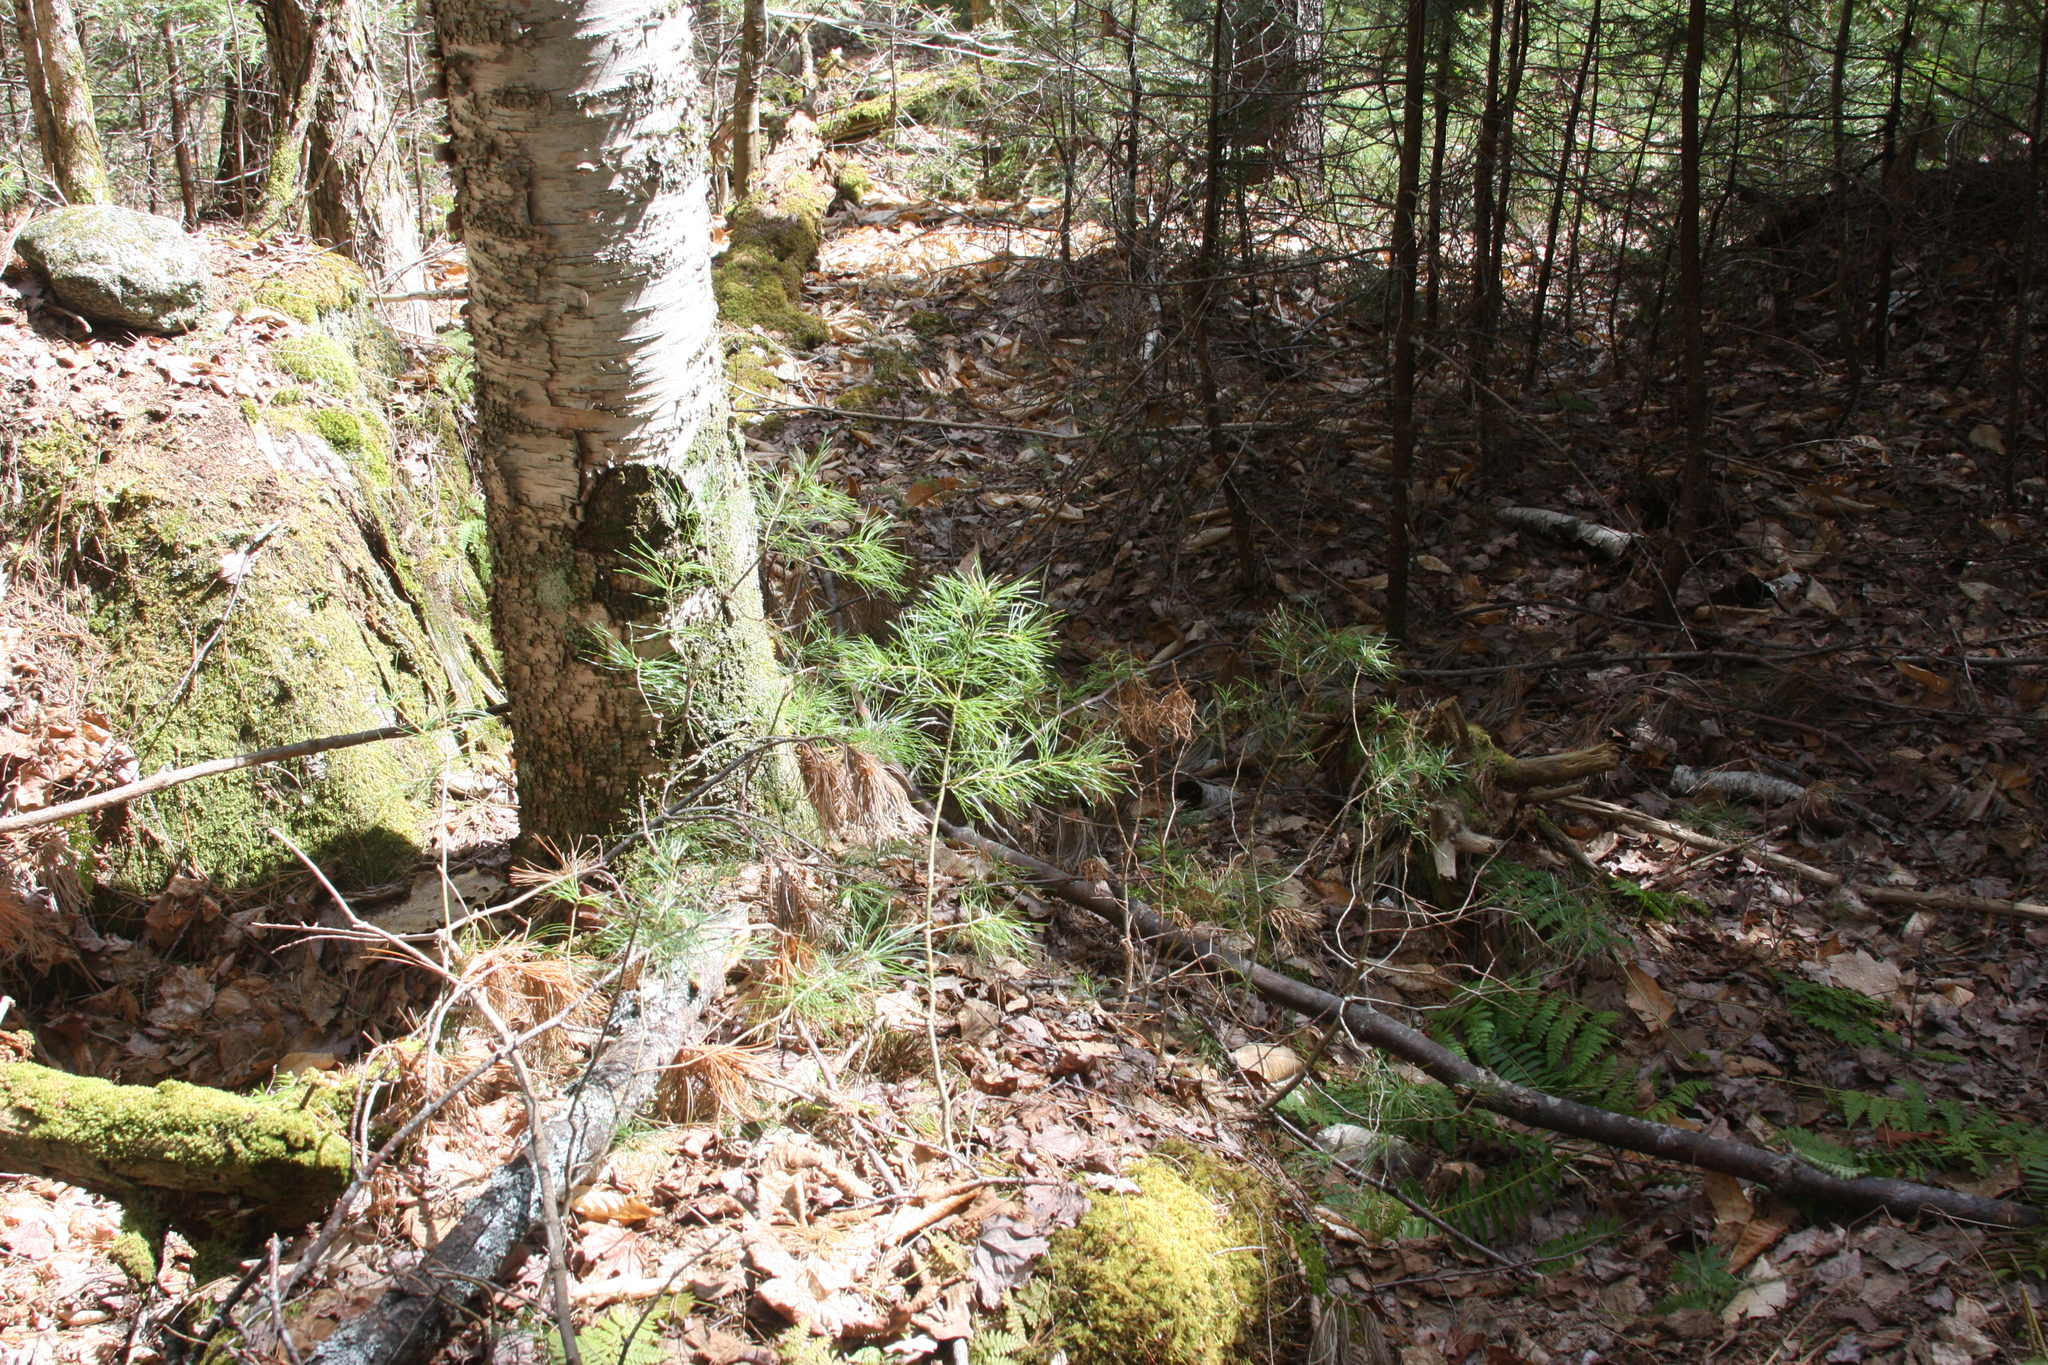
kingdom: Plantae
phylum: Tracheophyta
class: Pinopsida
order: Pinales
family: Pinaceae
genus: Pinus
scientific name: Pinus strobus
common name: Weymouth pine
